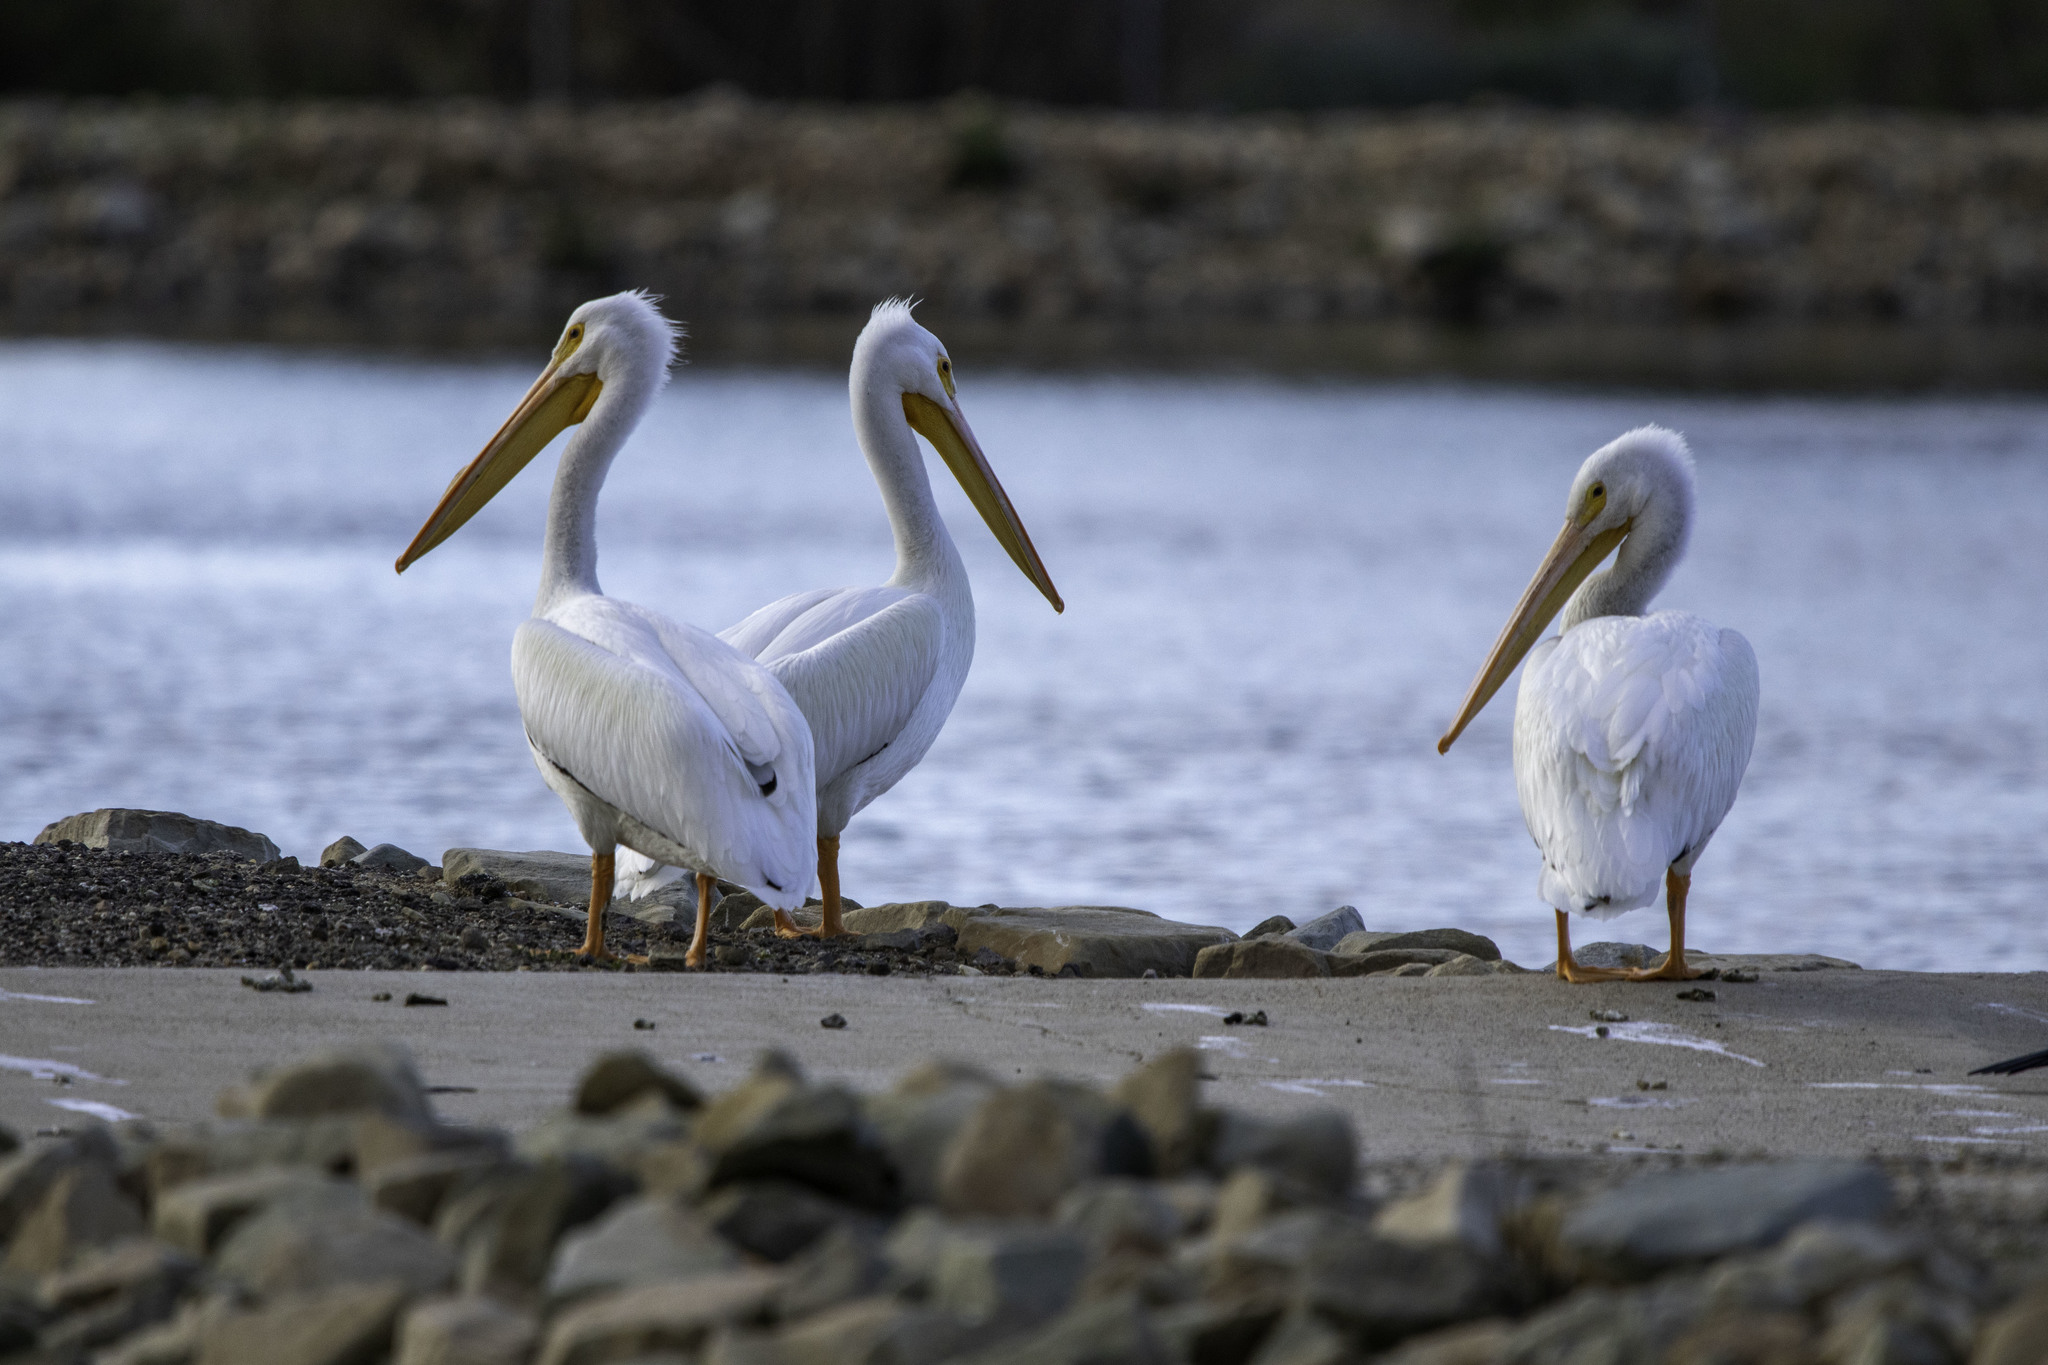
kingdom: Animalia
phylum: Chordata
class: Aves
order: Pelecaniformes
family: Pelecanidae
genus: Pelecanus
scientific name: Pelecanus erythrorhynchos
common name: American white pelican
